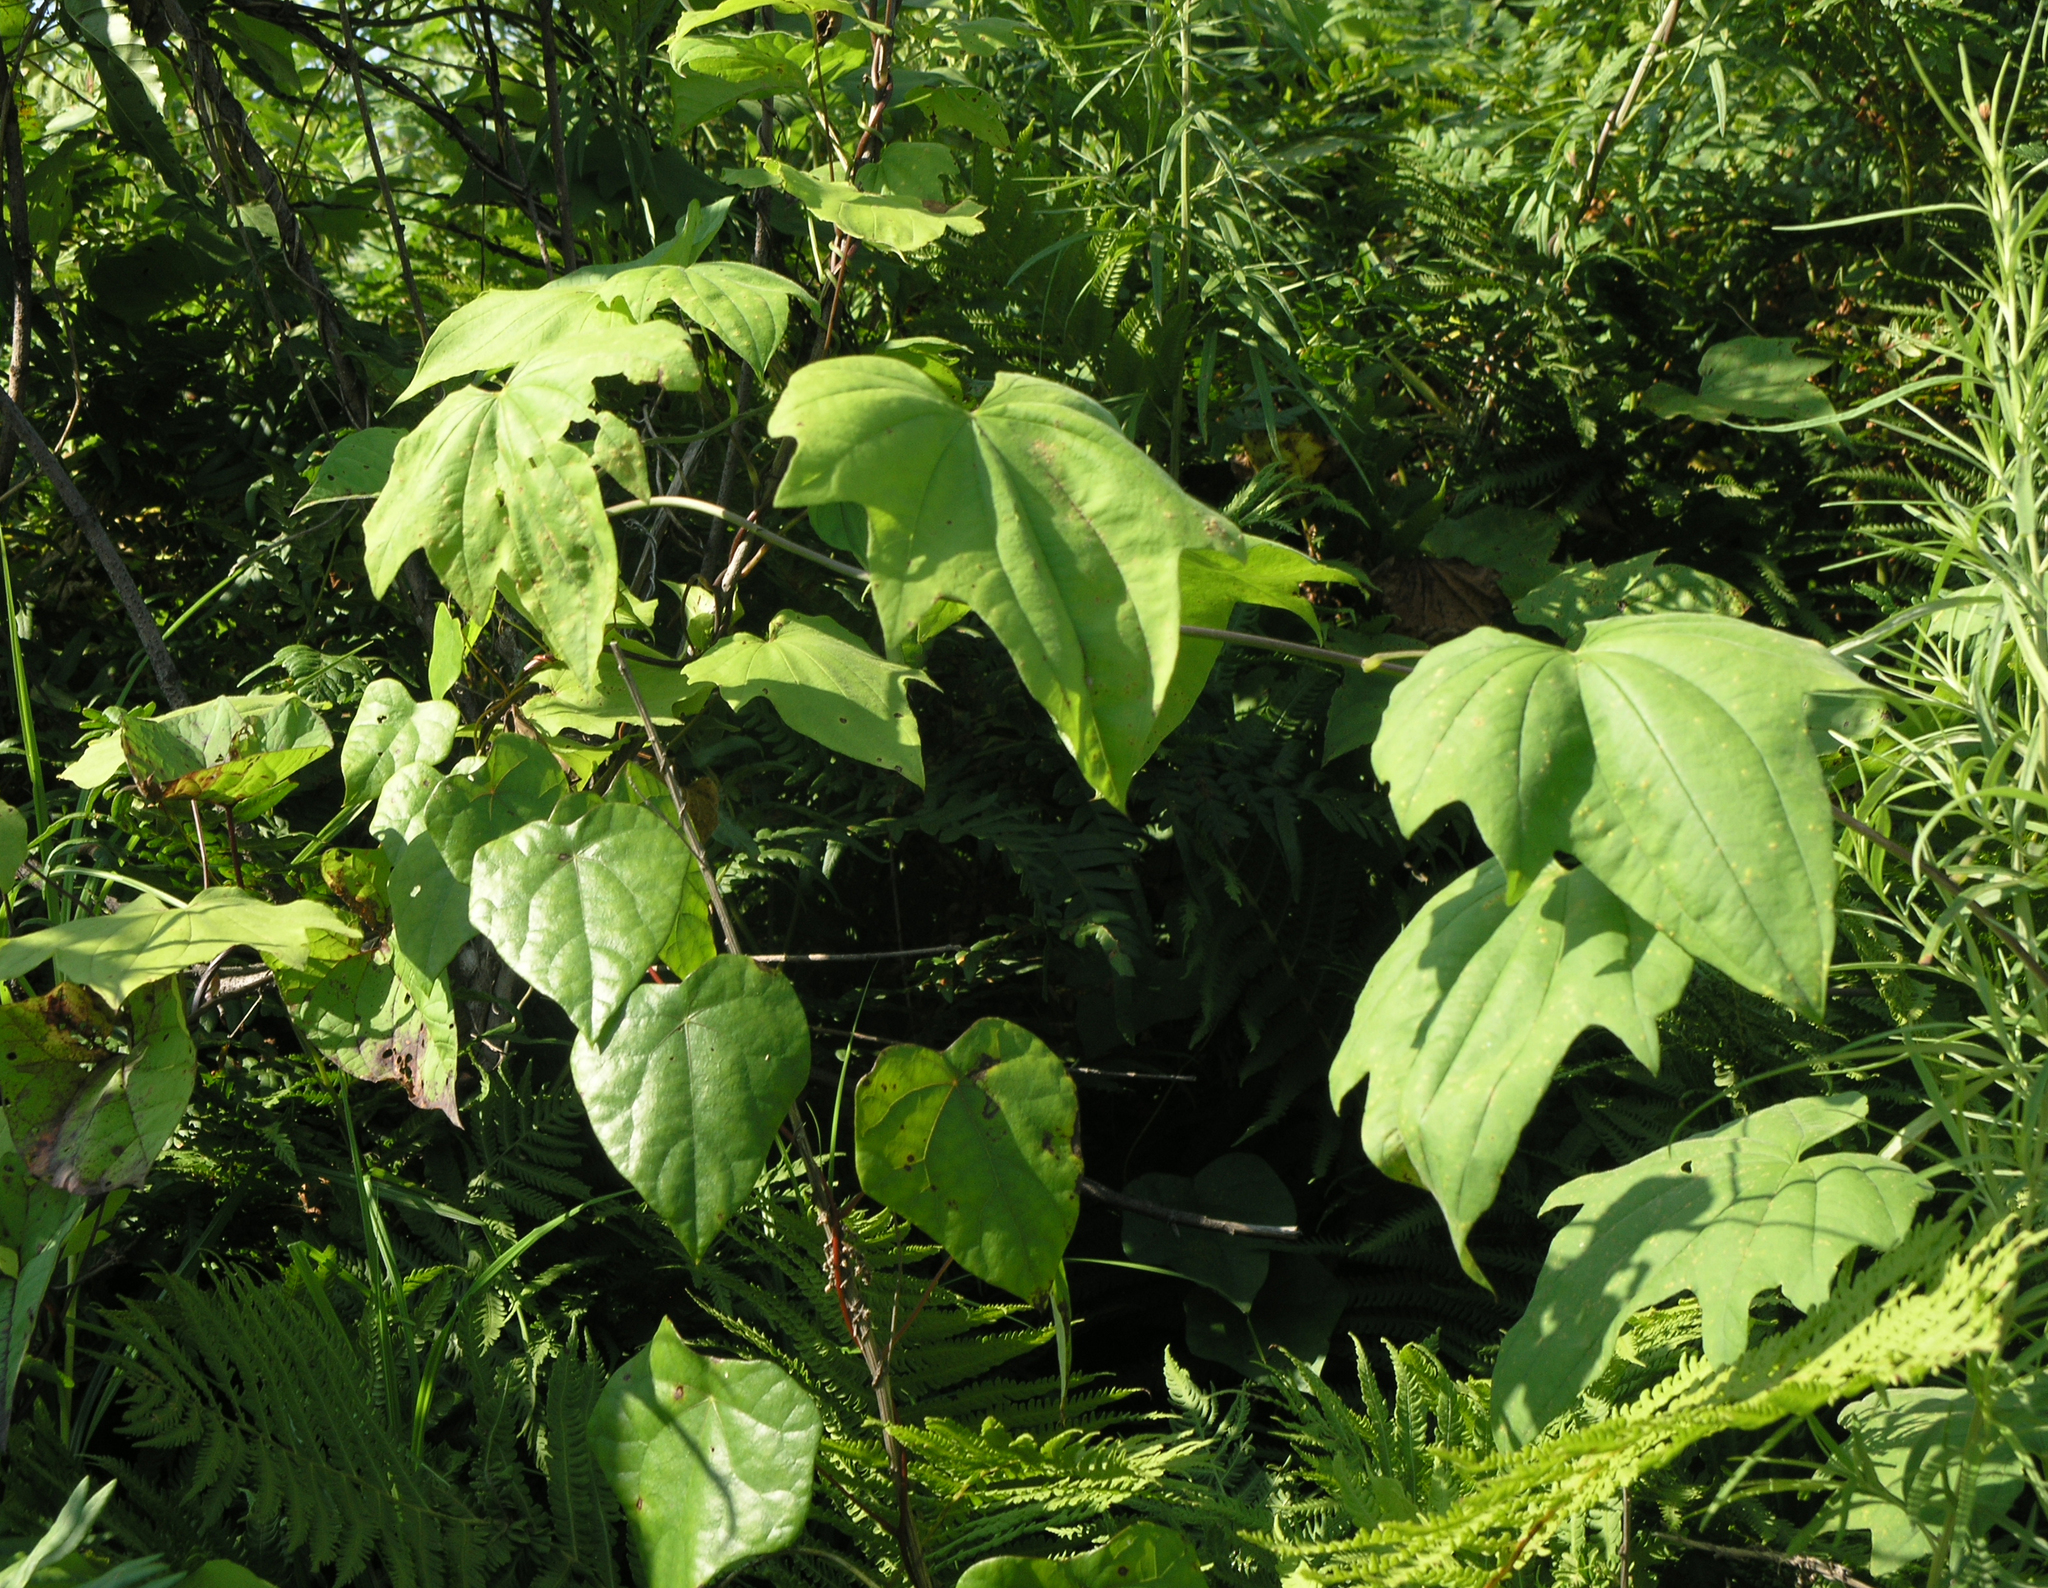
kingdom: Plantae
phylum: Tracheophyta
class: Liliopsida
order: Dioscoreales
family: Dioscoreaceae
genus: Dioscorea
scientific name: Dioscorea nipponica
